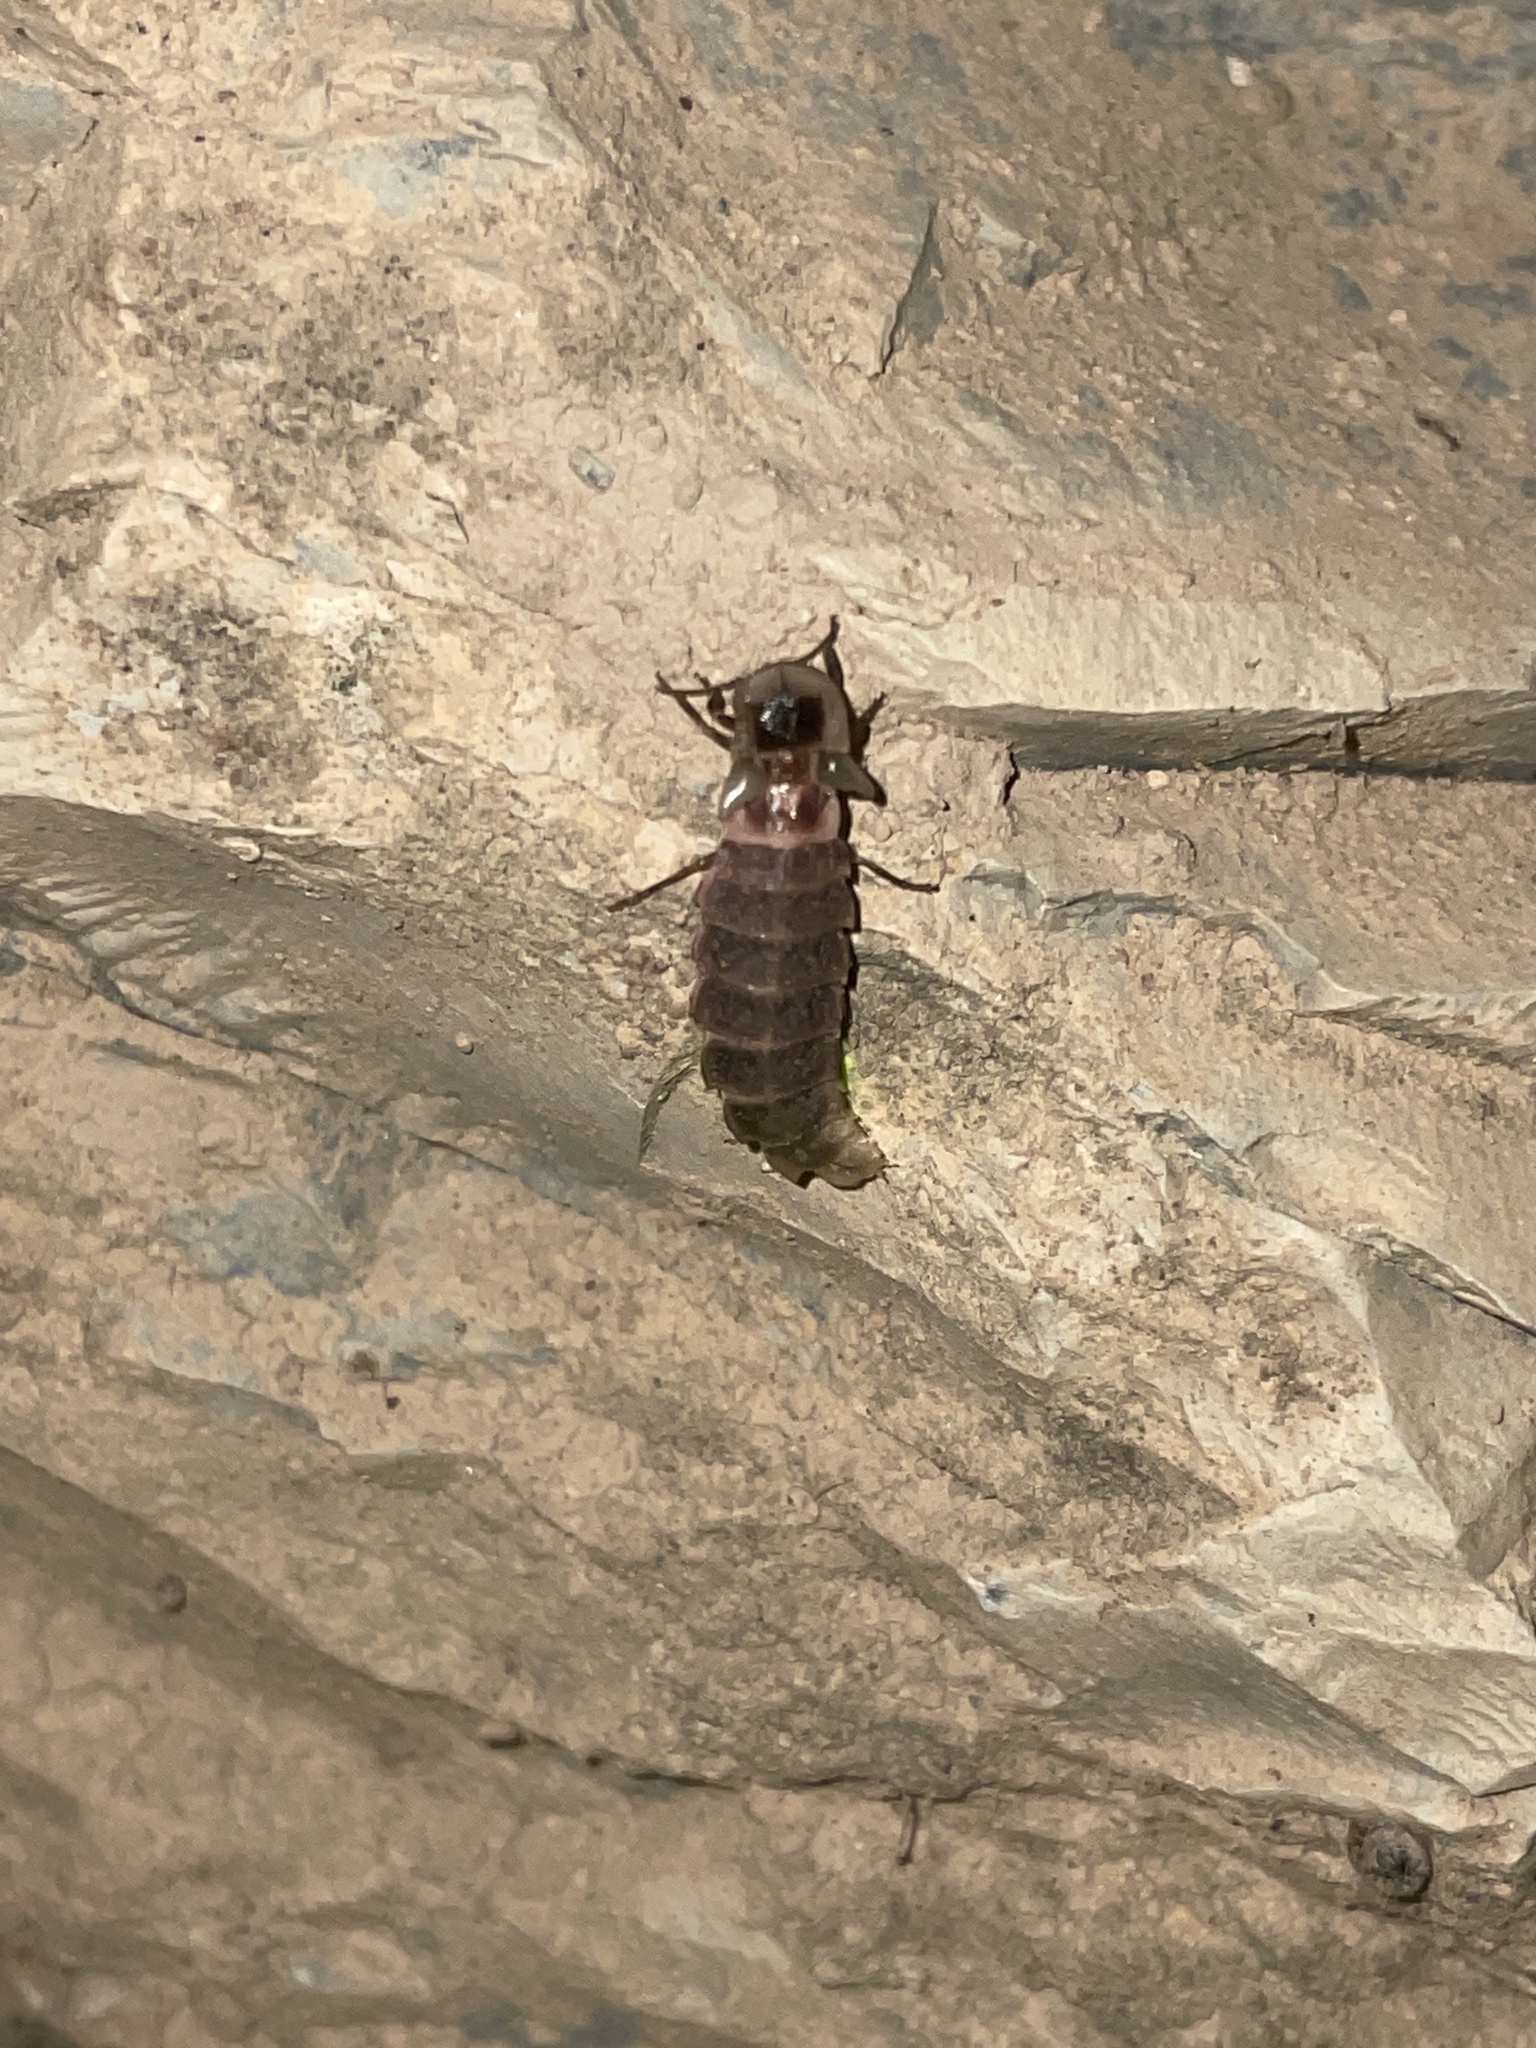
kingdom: Animalia
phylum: Arthropoda
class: Insecta
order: Coleoptera
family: Lampyridae
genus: Lampyris
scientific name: Lampyris raymondi
